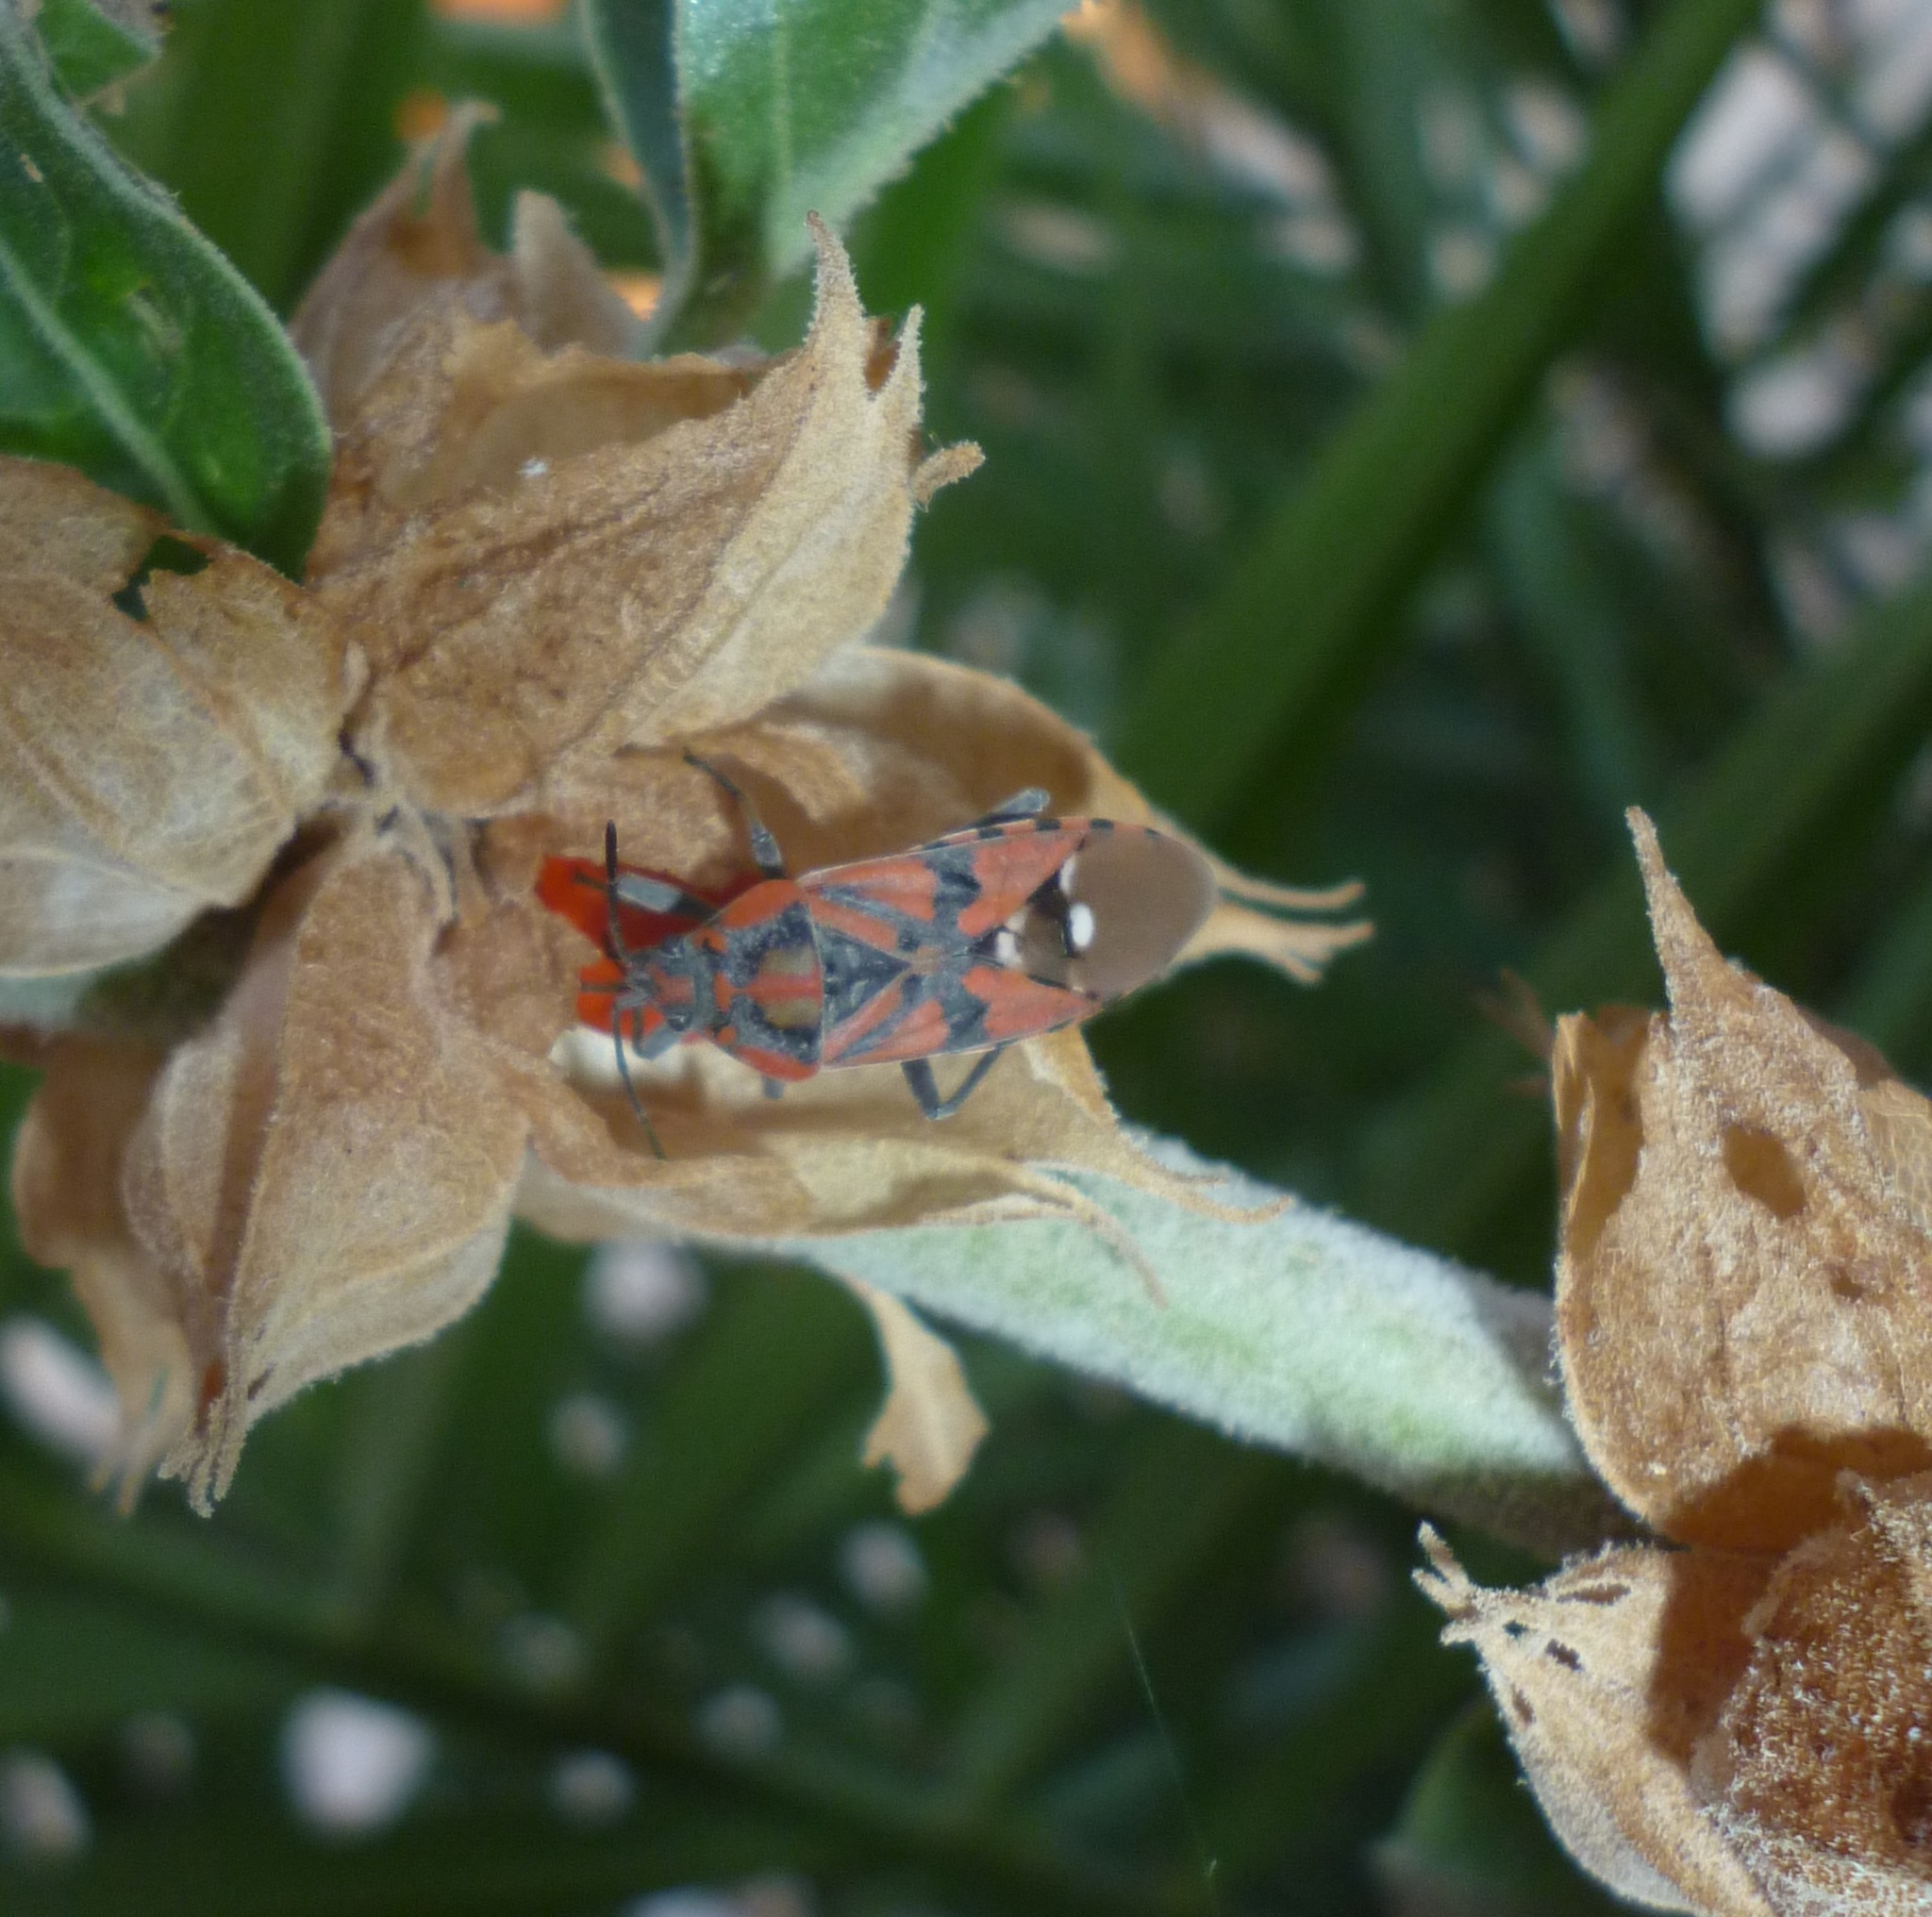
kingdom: Animalia
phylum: Arthropoda
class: Insecta
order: Hemiptera
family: Lygaeidae
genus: Spilostethus
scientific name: Spilostethus pandurus
